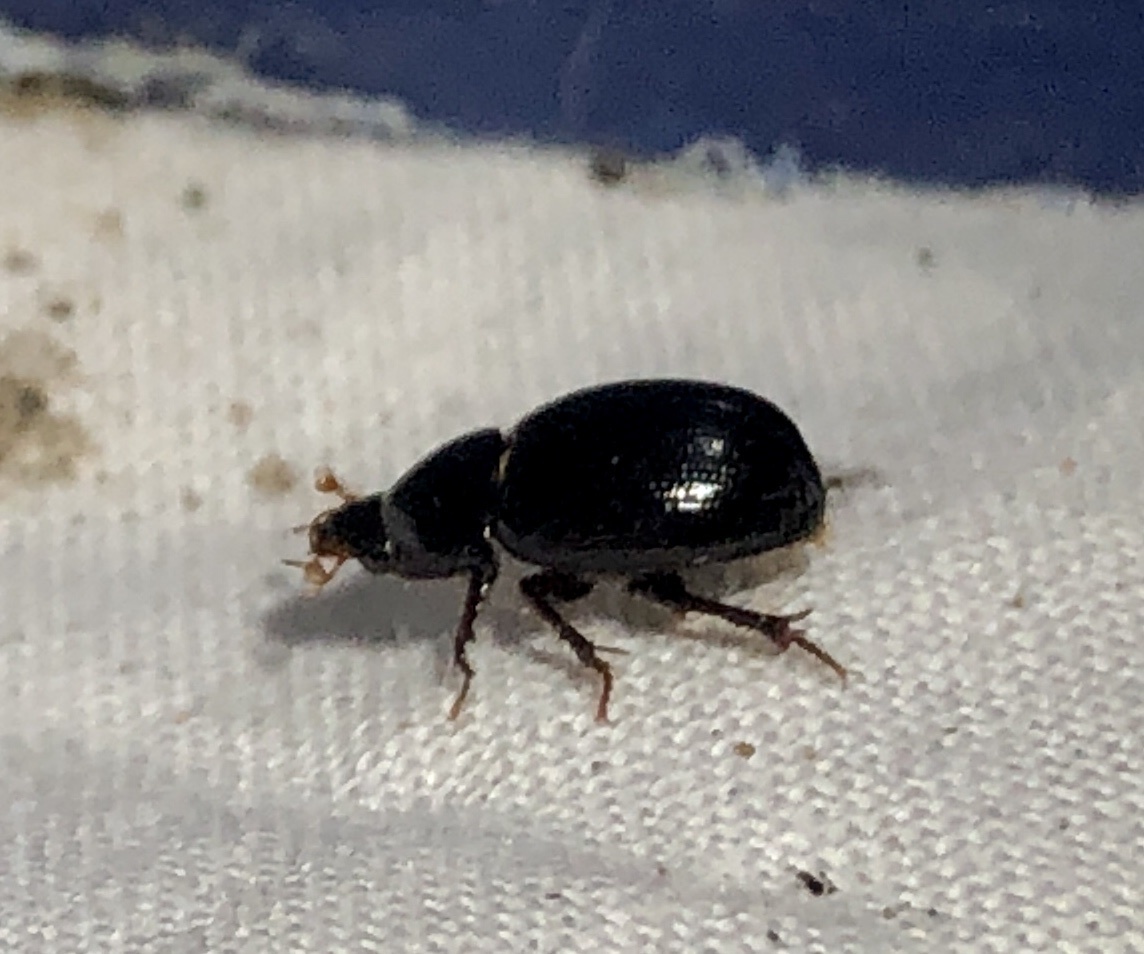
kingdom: Animalia
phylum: Arthropoda
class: Insecta
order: Coleoptera
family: Hybosoridae
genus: Hybosorus
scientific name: Hybosorus illigeri
